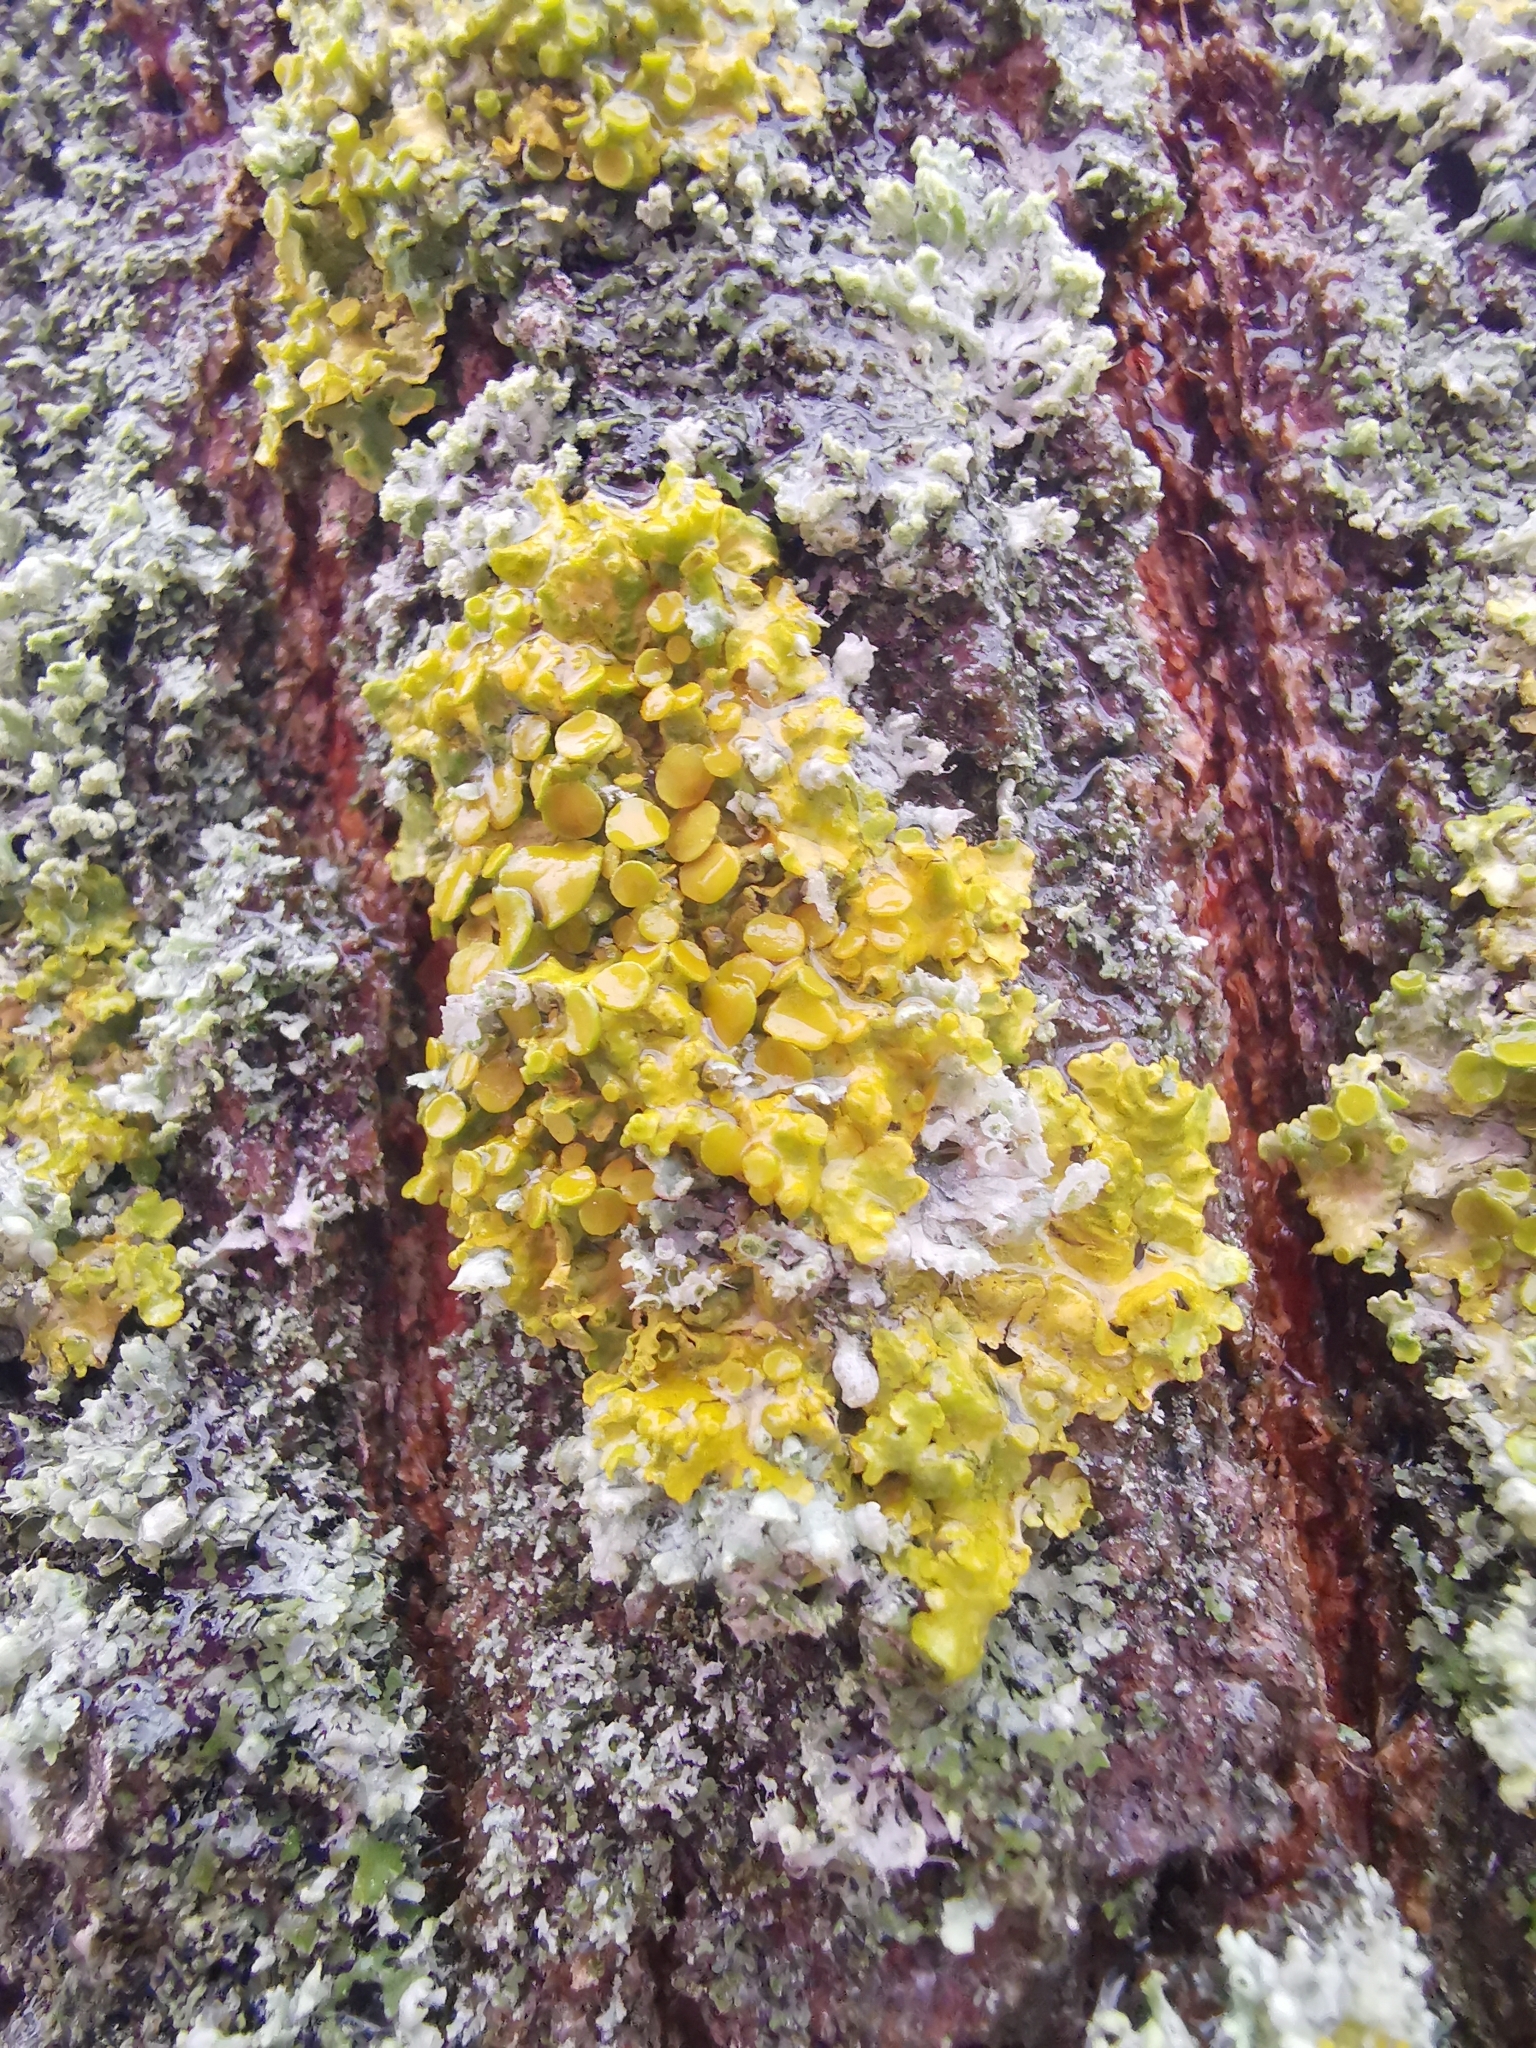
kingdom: Fungi
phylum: Ascomycota
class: Lecanoromycetes
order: Teloschistales
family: Teloschistaceae
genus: Xanthoria
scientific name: Xanthoria parietina
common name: Common orange lichen
